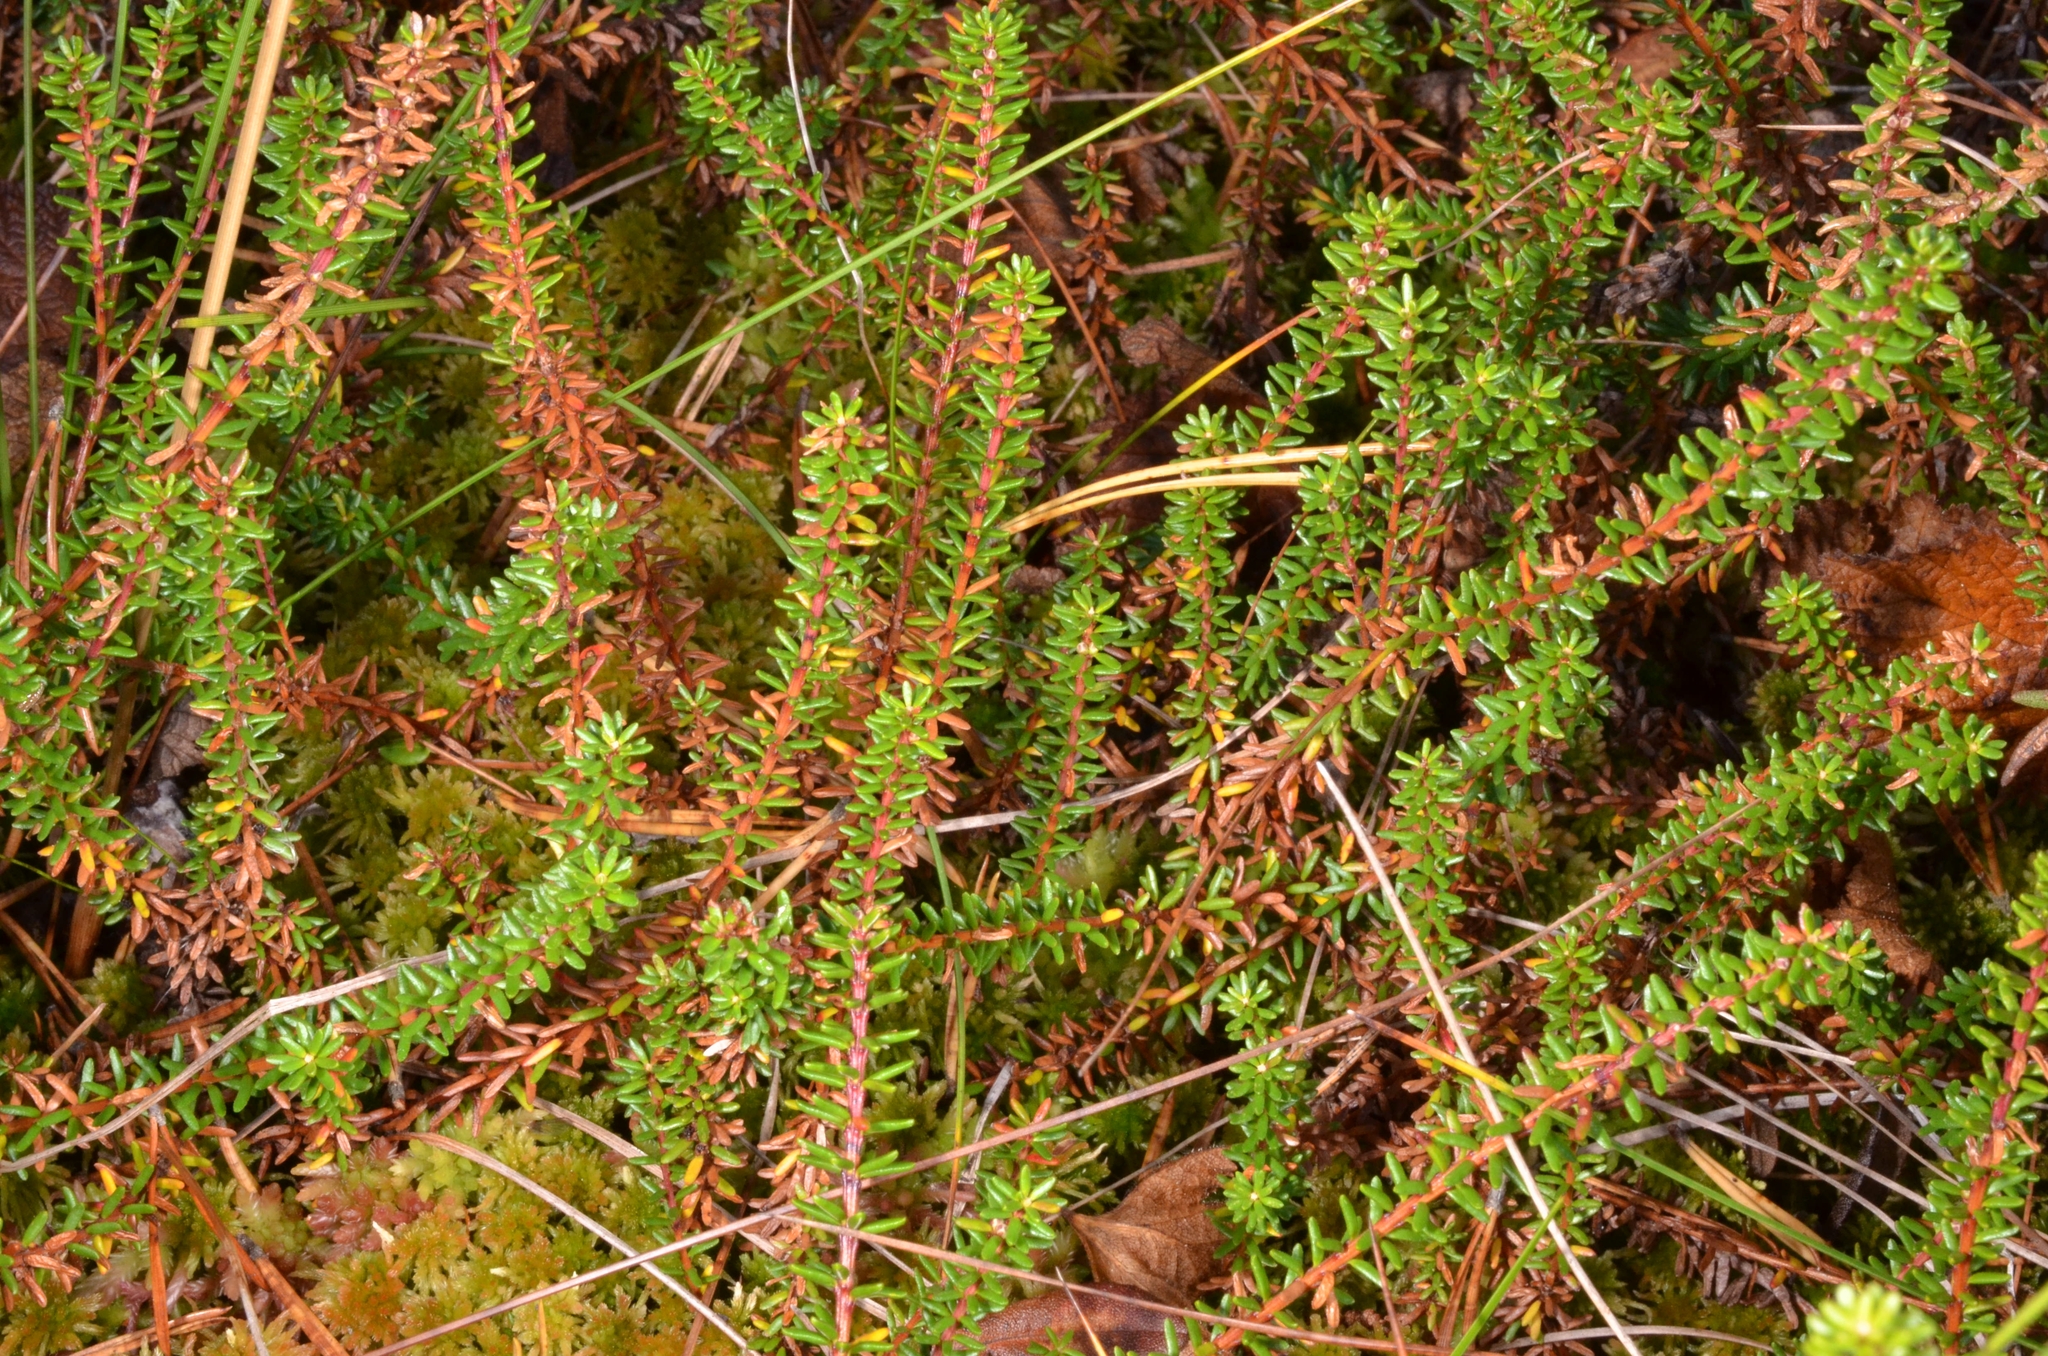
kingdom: Plantae
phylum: Tracheophyta
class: Magnoliopsida
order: Ericales
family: Ericaceae
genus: Empetrum
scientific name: Empetrum nigrum
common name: Black crowberry
